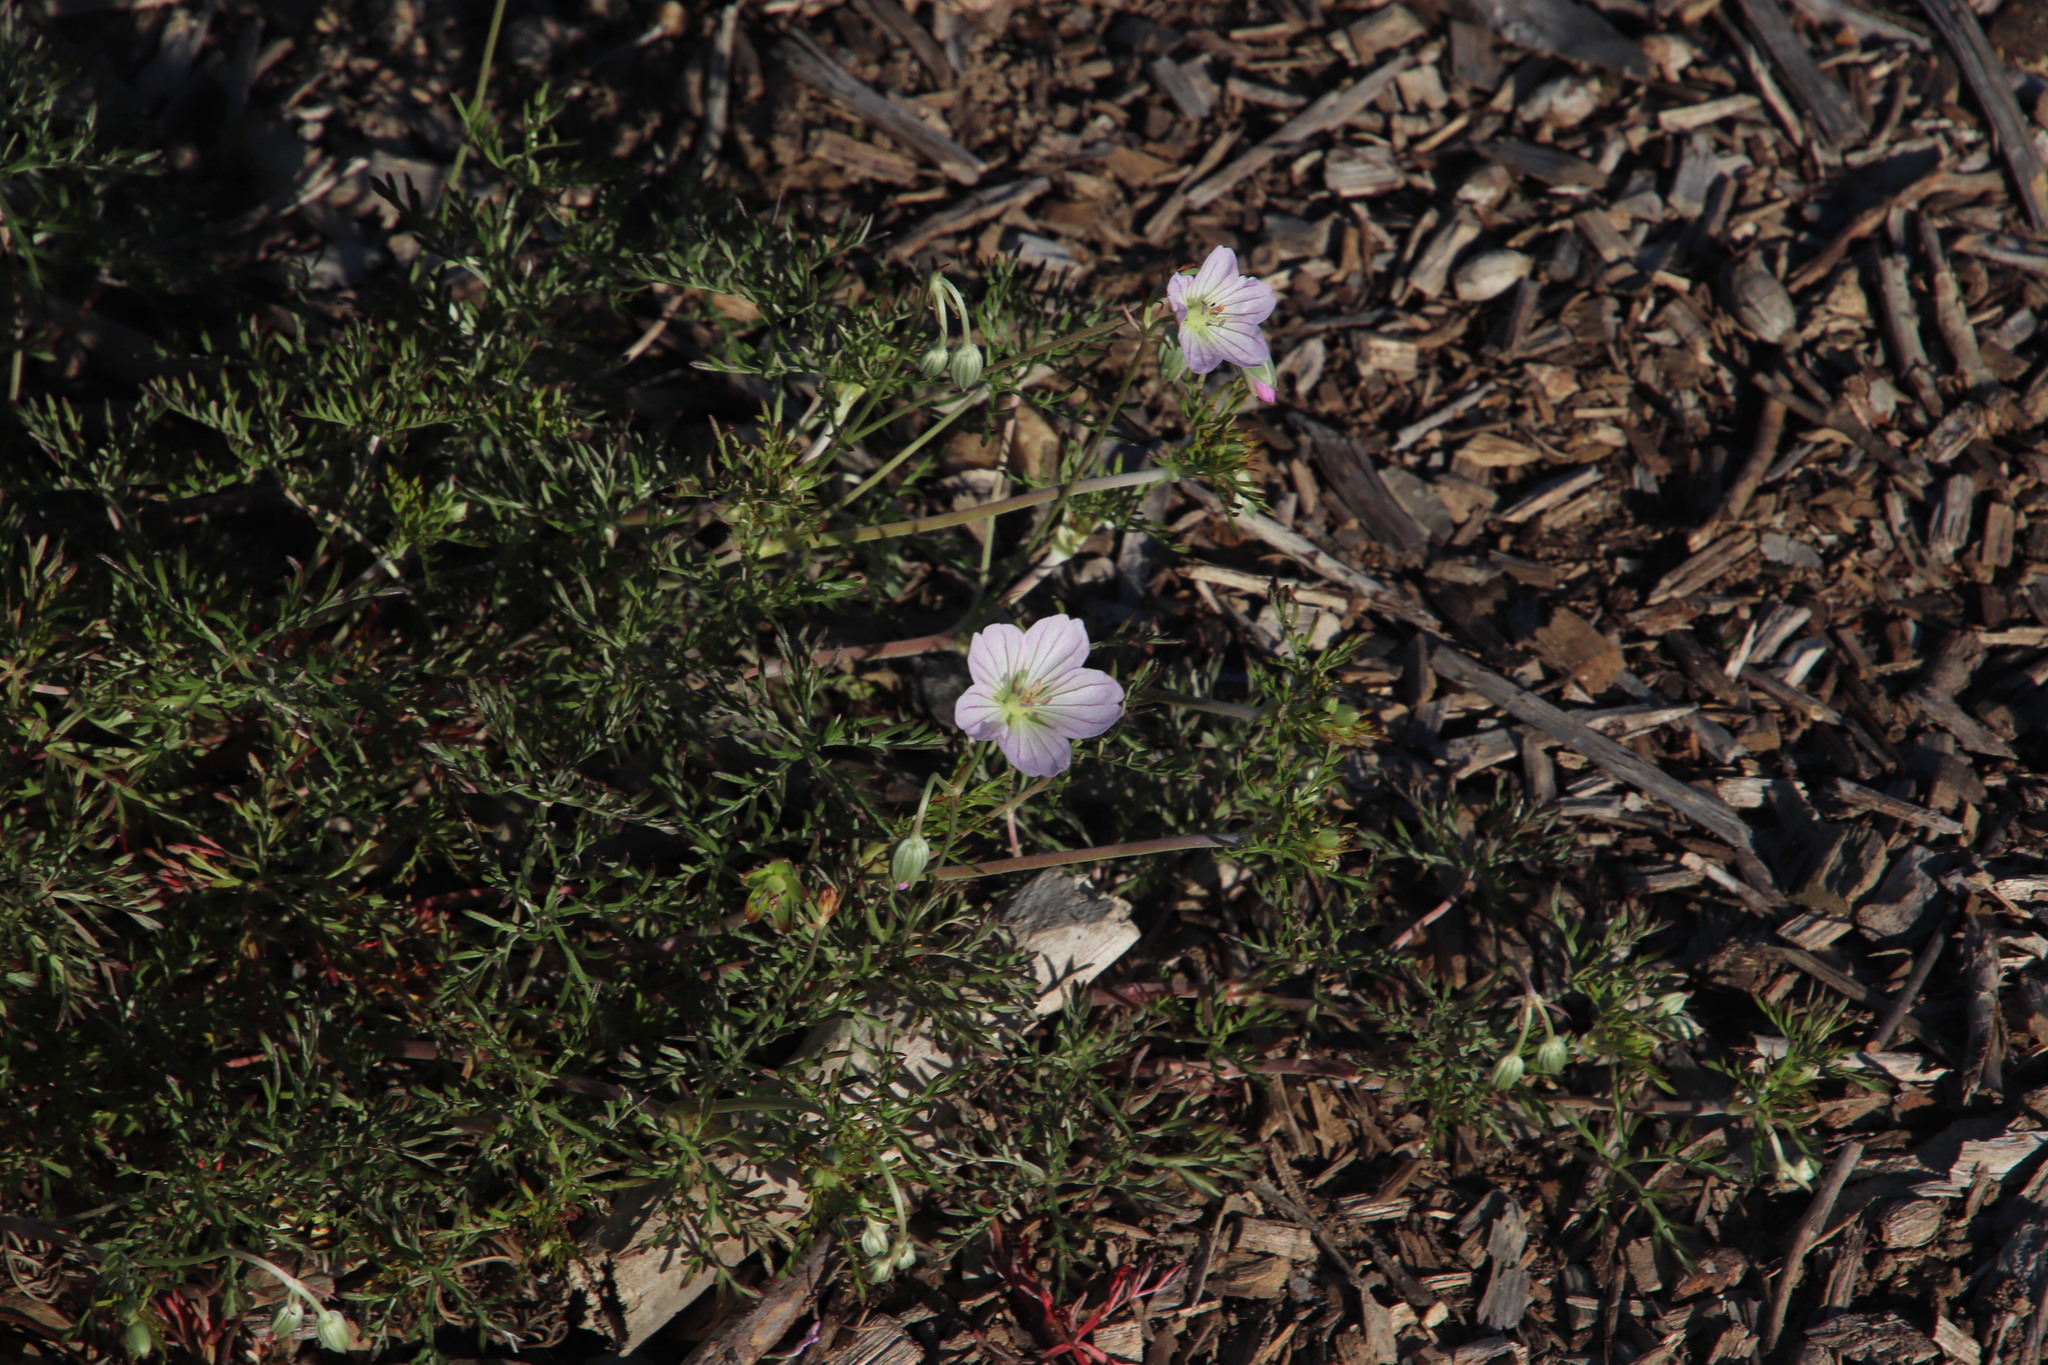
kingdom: Plantae
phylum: Tracheophyta
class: Magnoliopsida
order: Geraniales
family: Geraniaceae
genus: Geranium
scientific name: Geranium incanum
